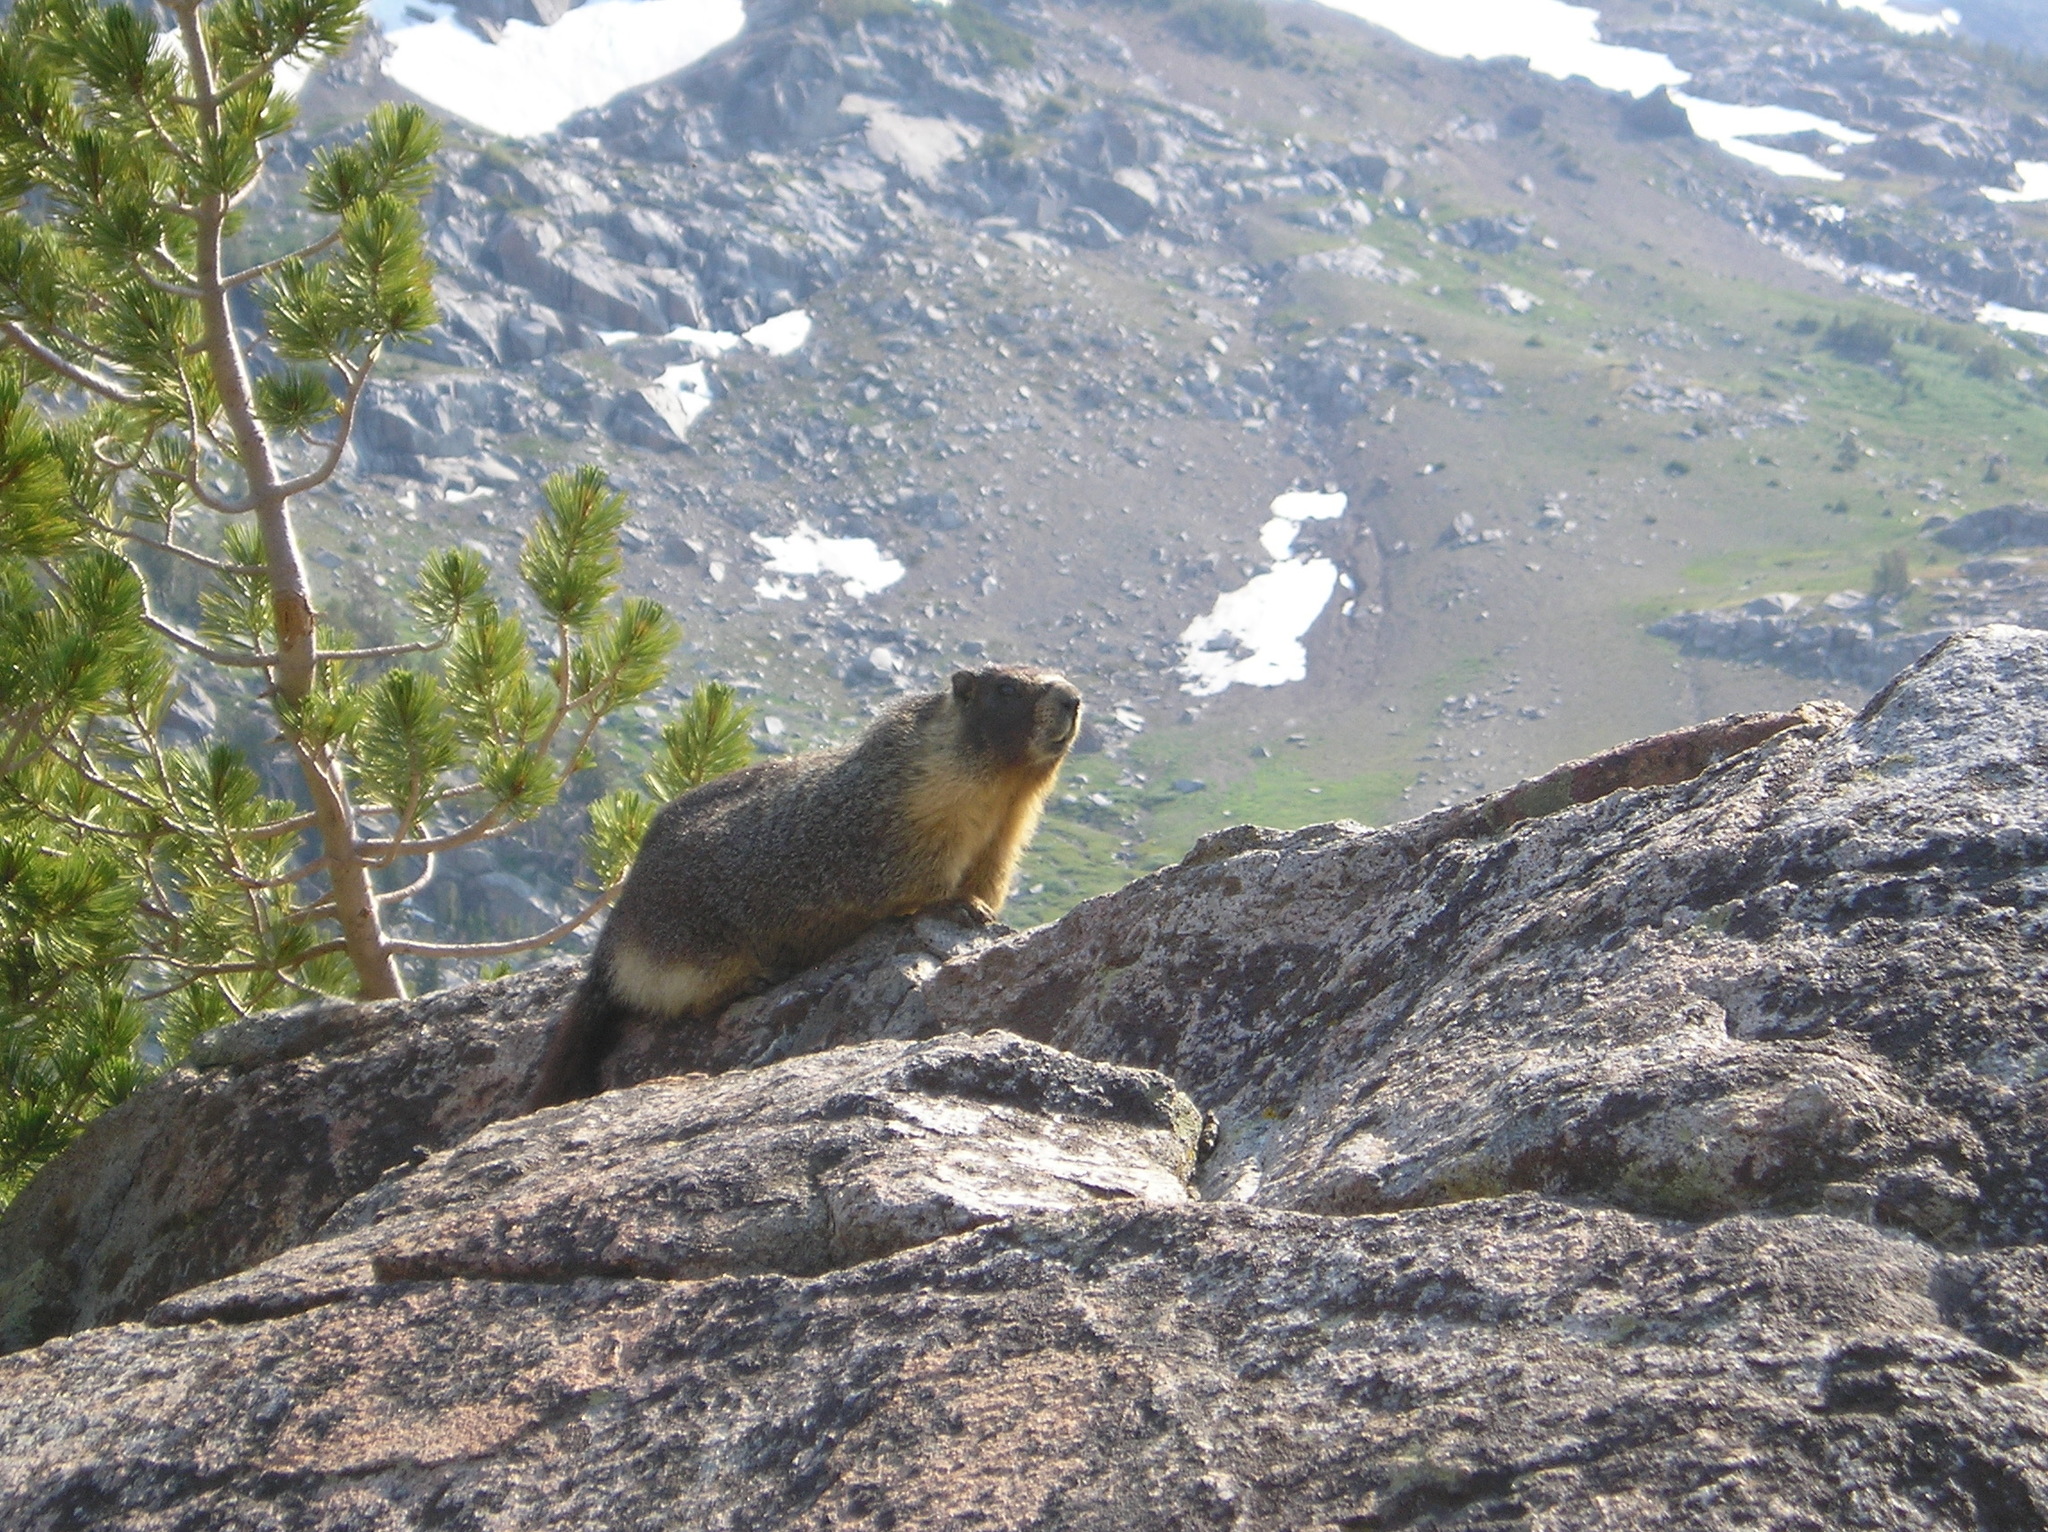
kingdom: Animalia
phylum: Chordata
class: Mammalia
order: Rodentia
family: Sciuridae
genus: Marmota
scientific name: Marmota flaviventris
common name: Yellow-bellied marmot
